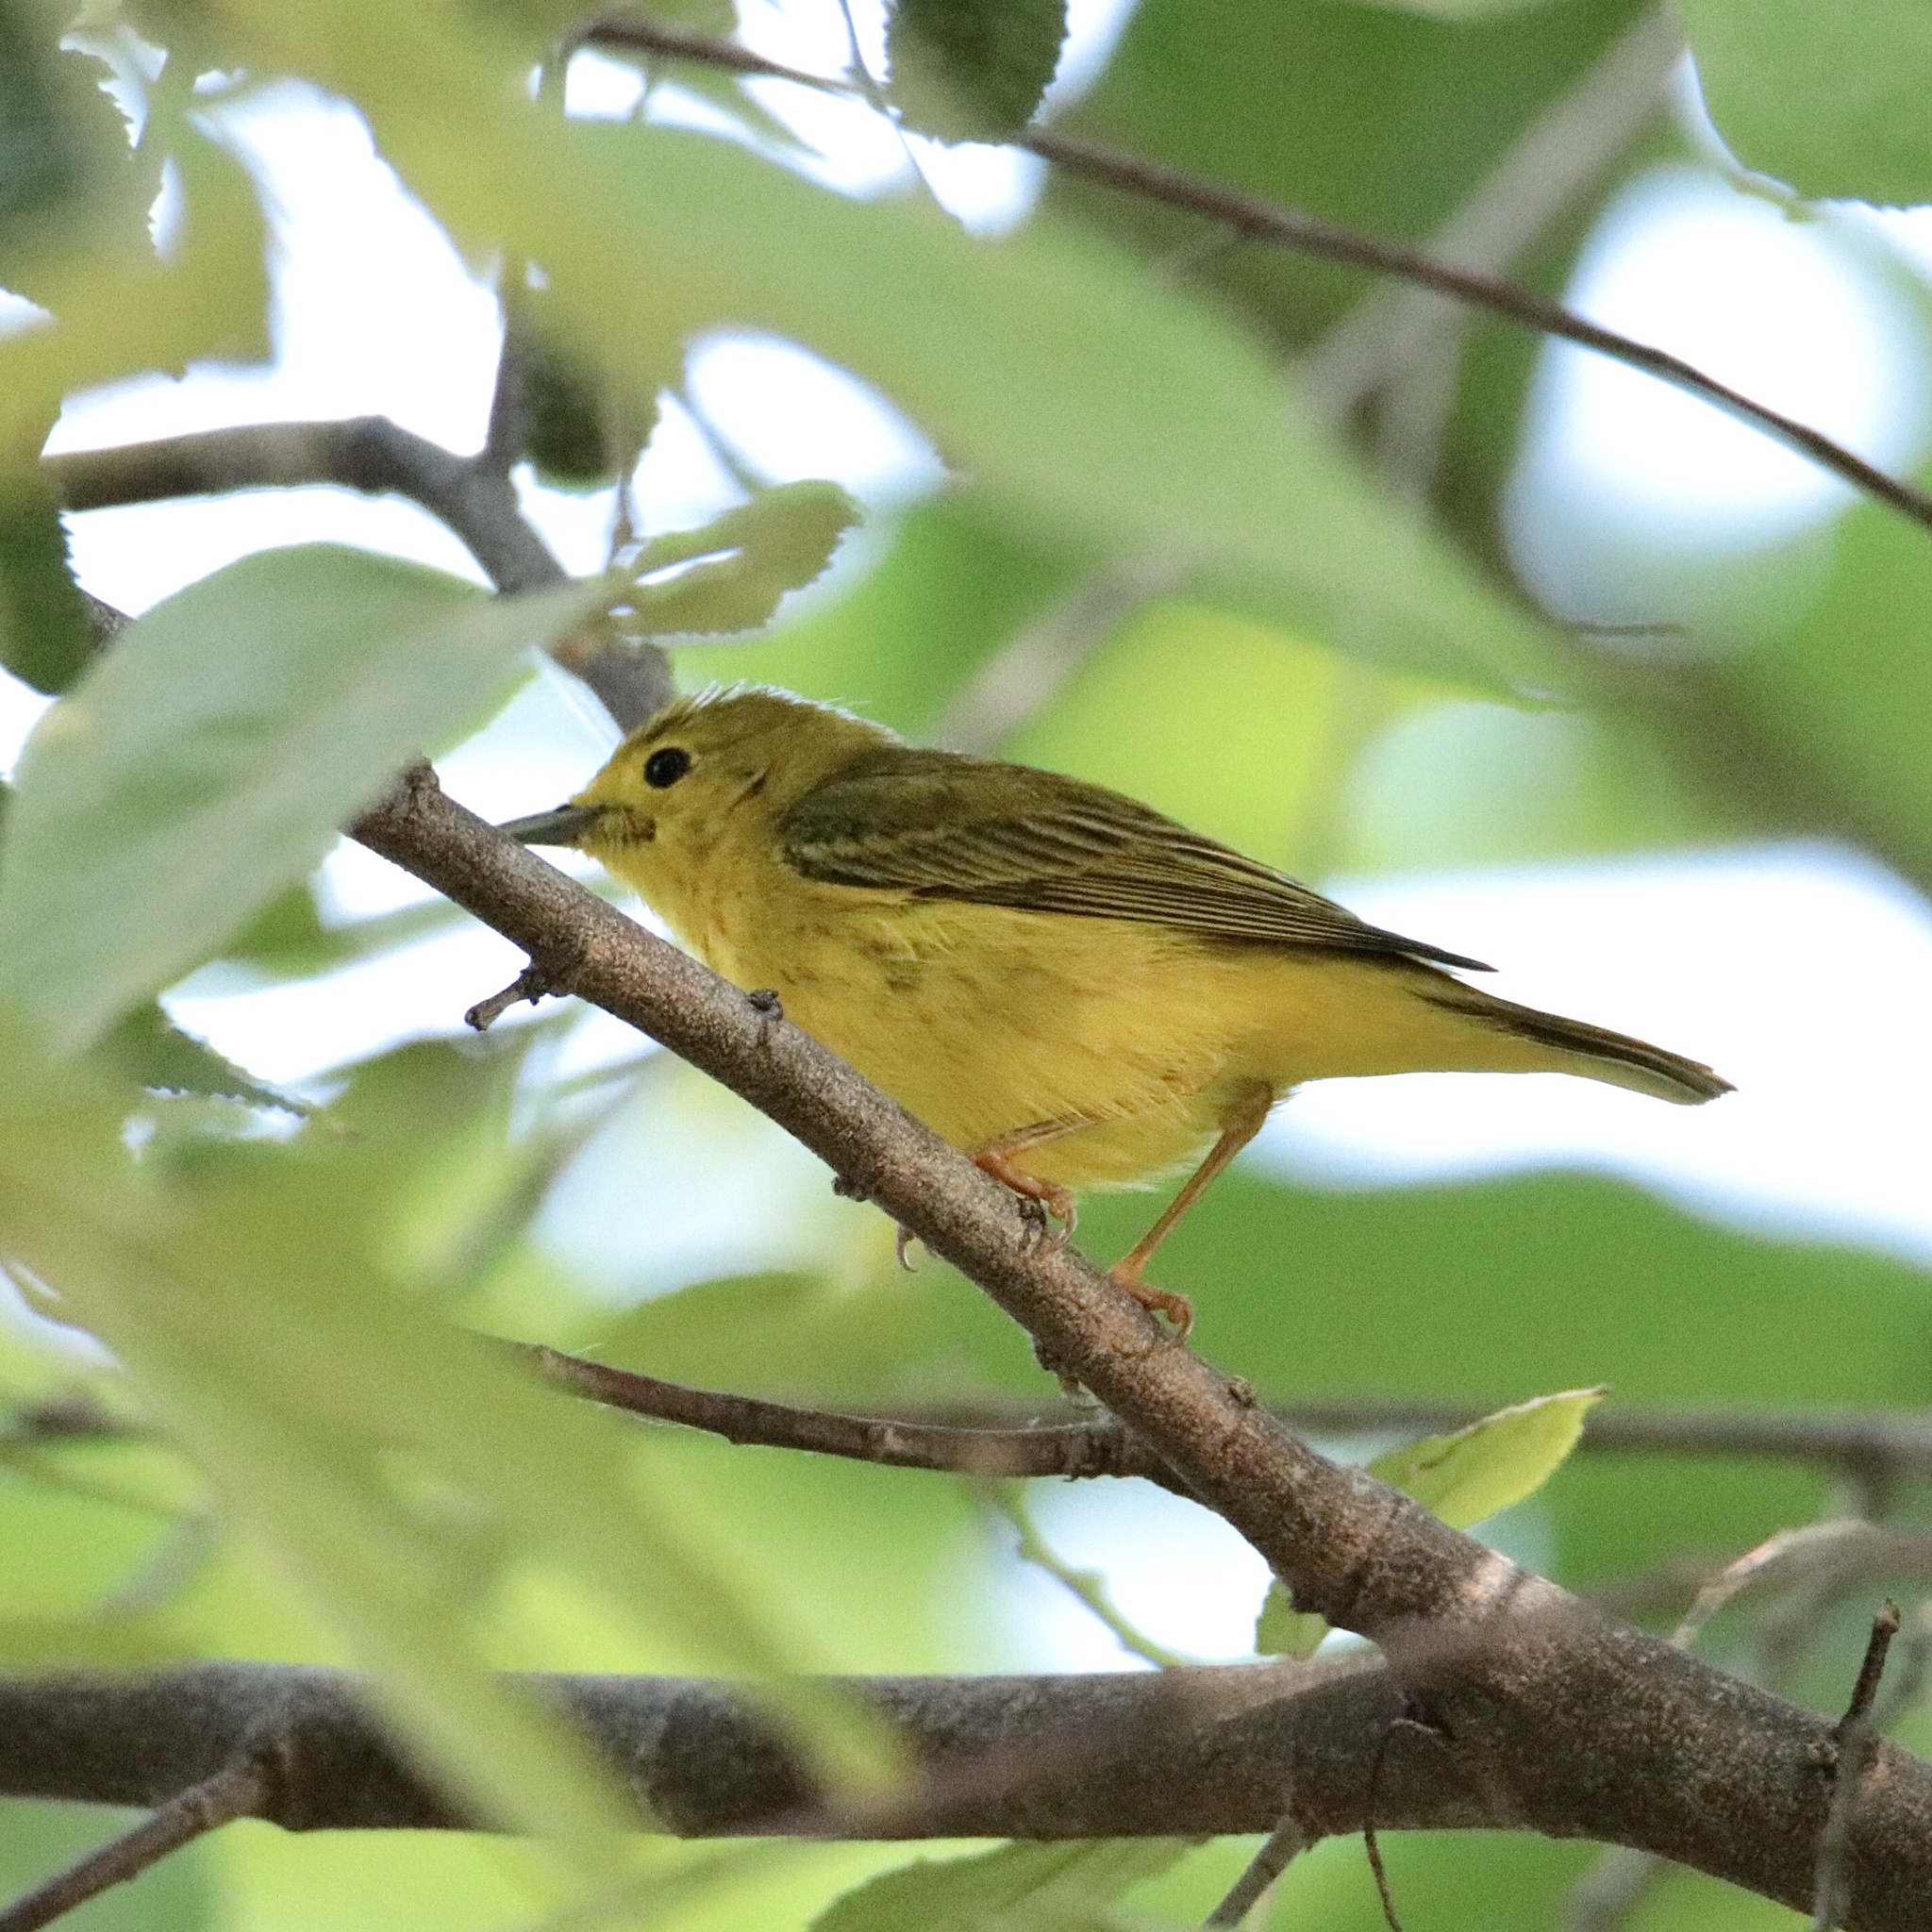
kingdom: Animalia
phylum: Chordata
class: Aves
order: Passeriformes
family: Parulidae
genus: Setophaga
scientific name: Setophaga petechia
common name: Yellow warbler
